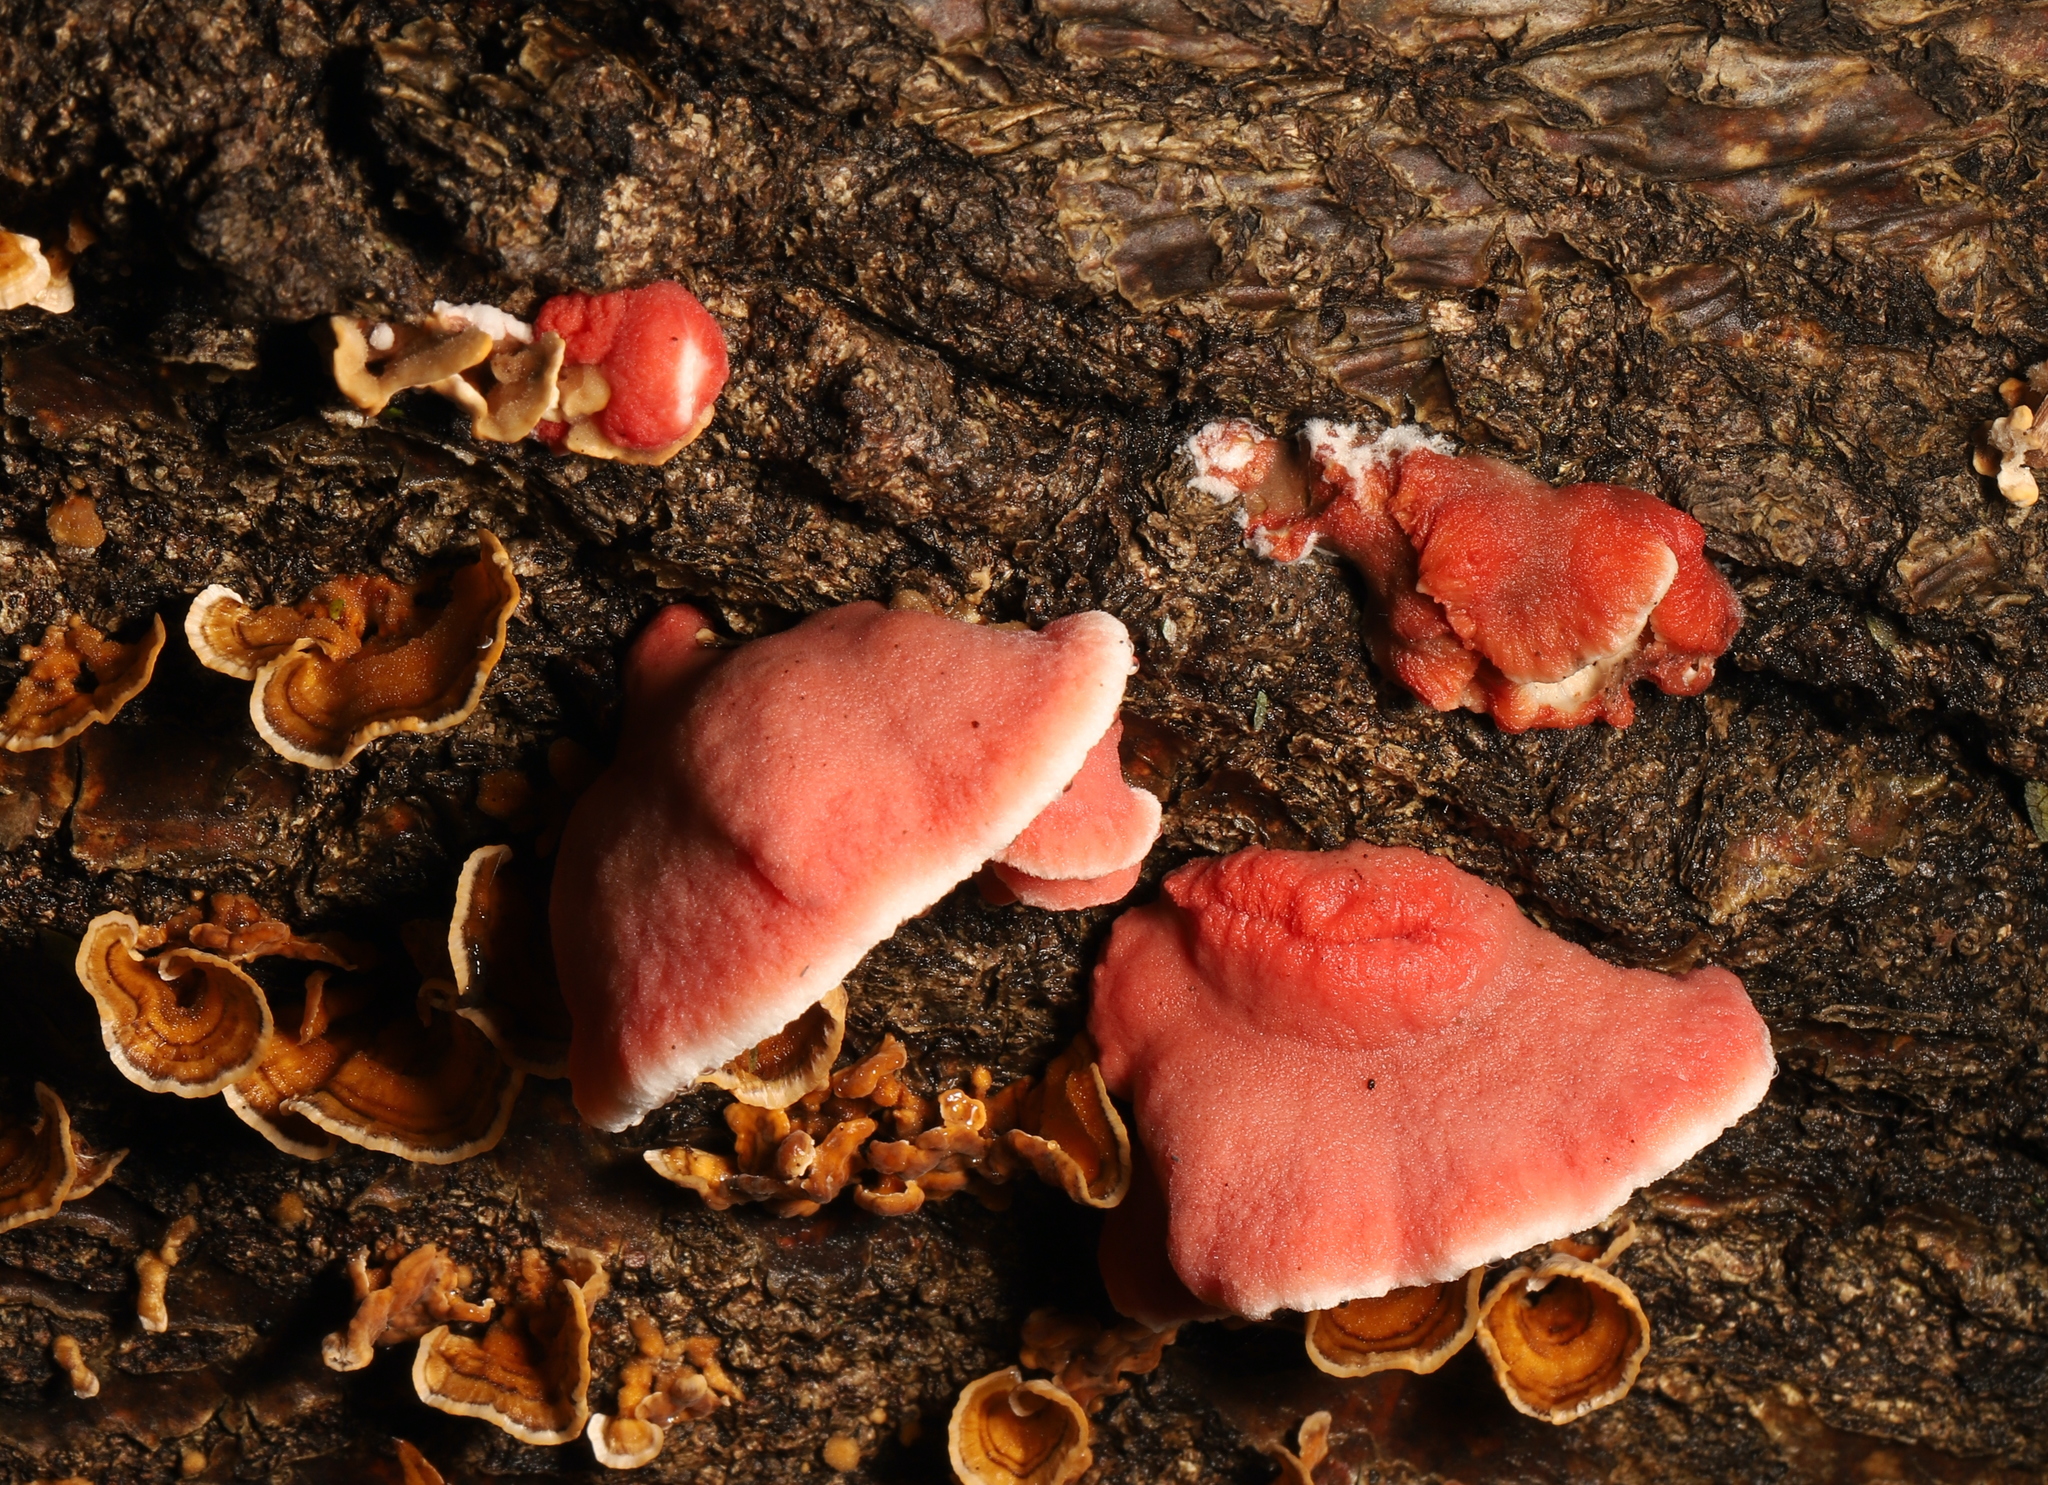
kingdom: Fungi
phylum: Basidiomycota
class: Agaricomycetes
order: Polyporales
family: Irpicaceae
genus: Byssomerulius
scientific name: Byssomerulius incarnatus
